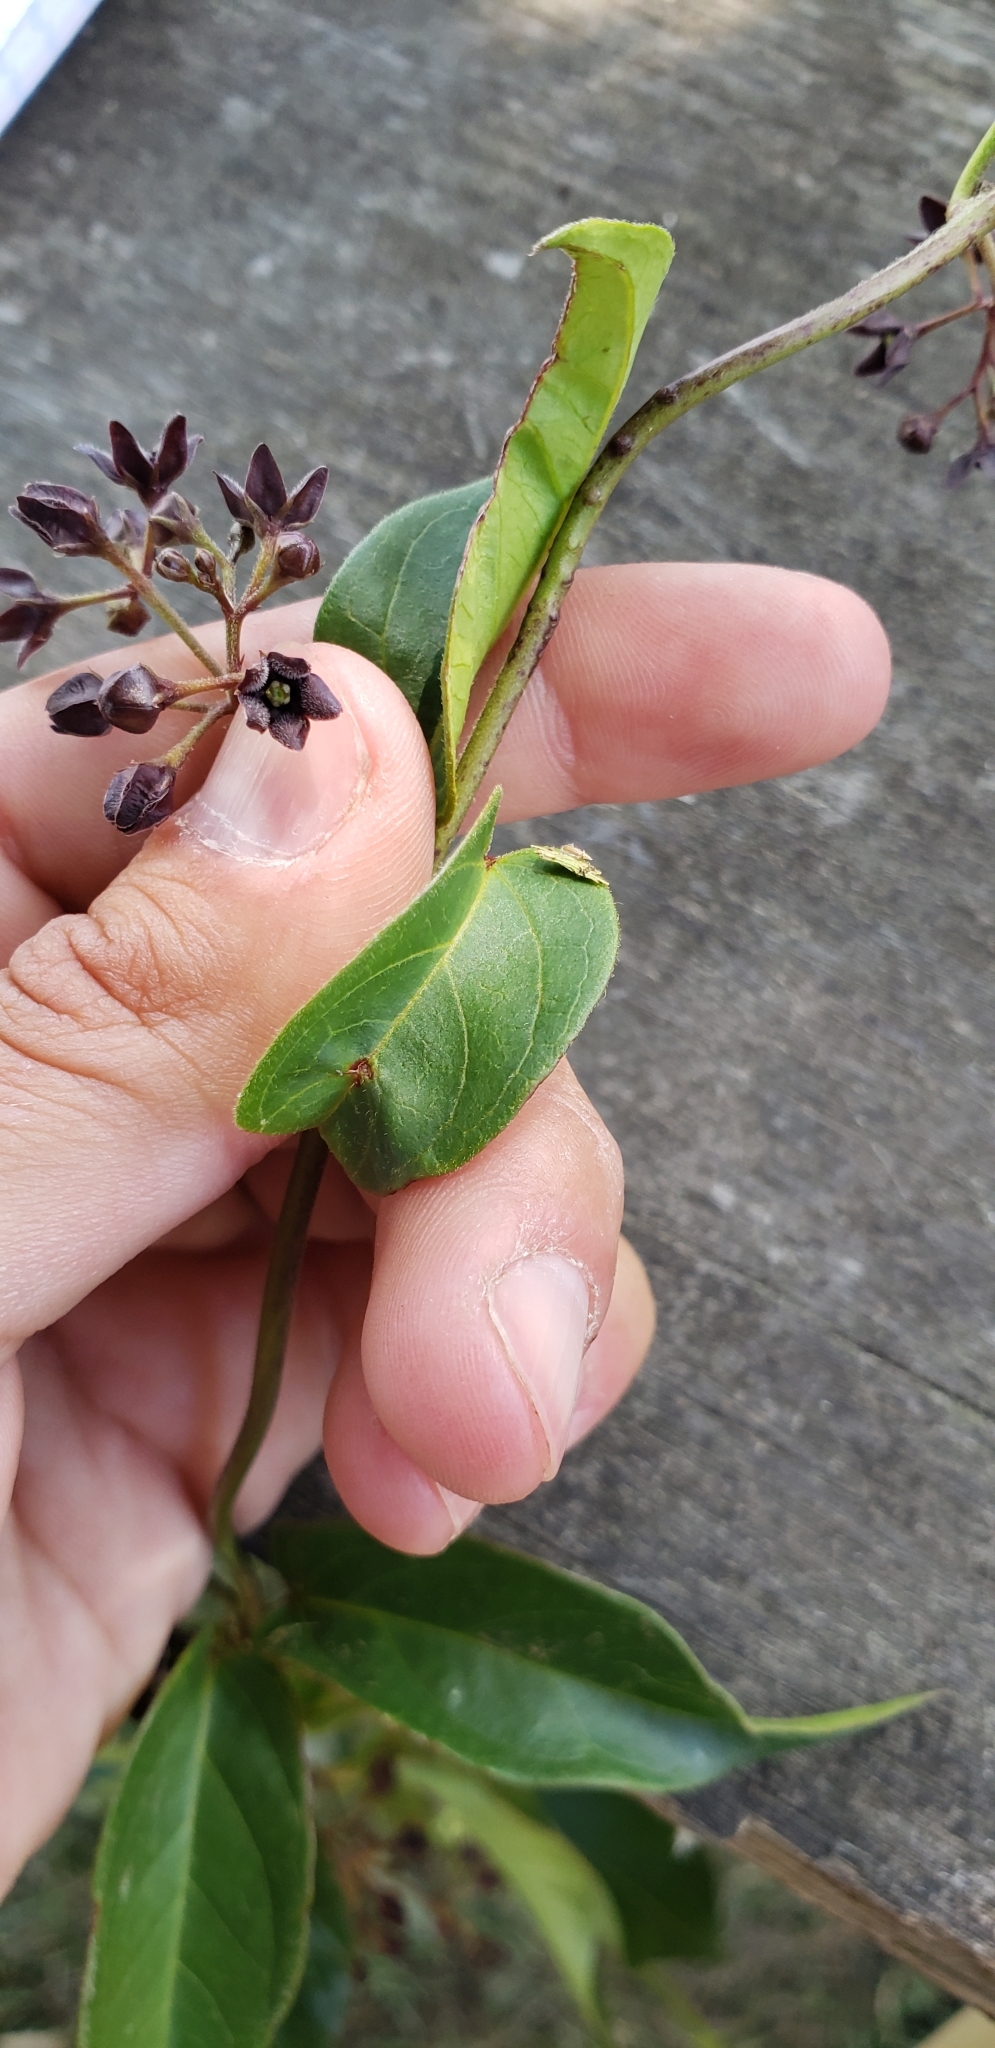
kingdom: Plantae
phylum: Tracheophyta
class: Magnoliopsida
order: Gentianales
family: Apocynaceae
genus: Vincetoxicum
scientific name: Vincetoxicum nigrum
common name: Black swallow-wort
